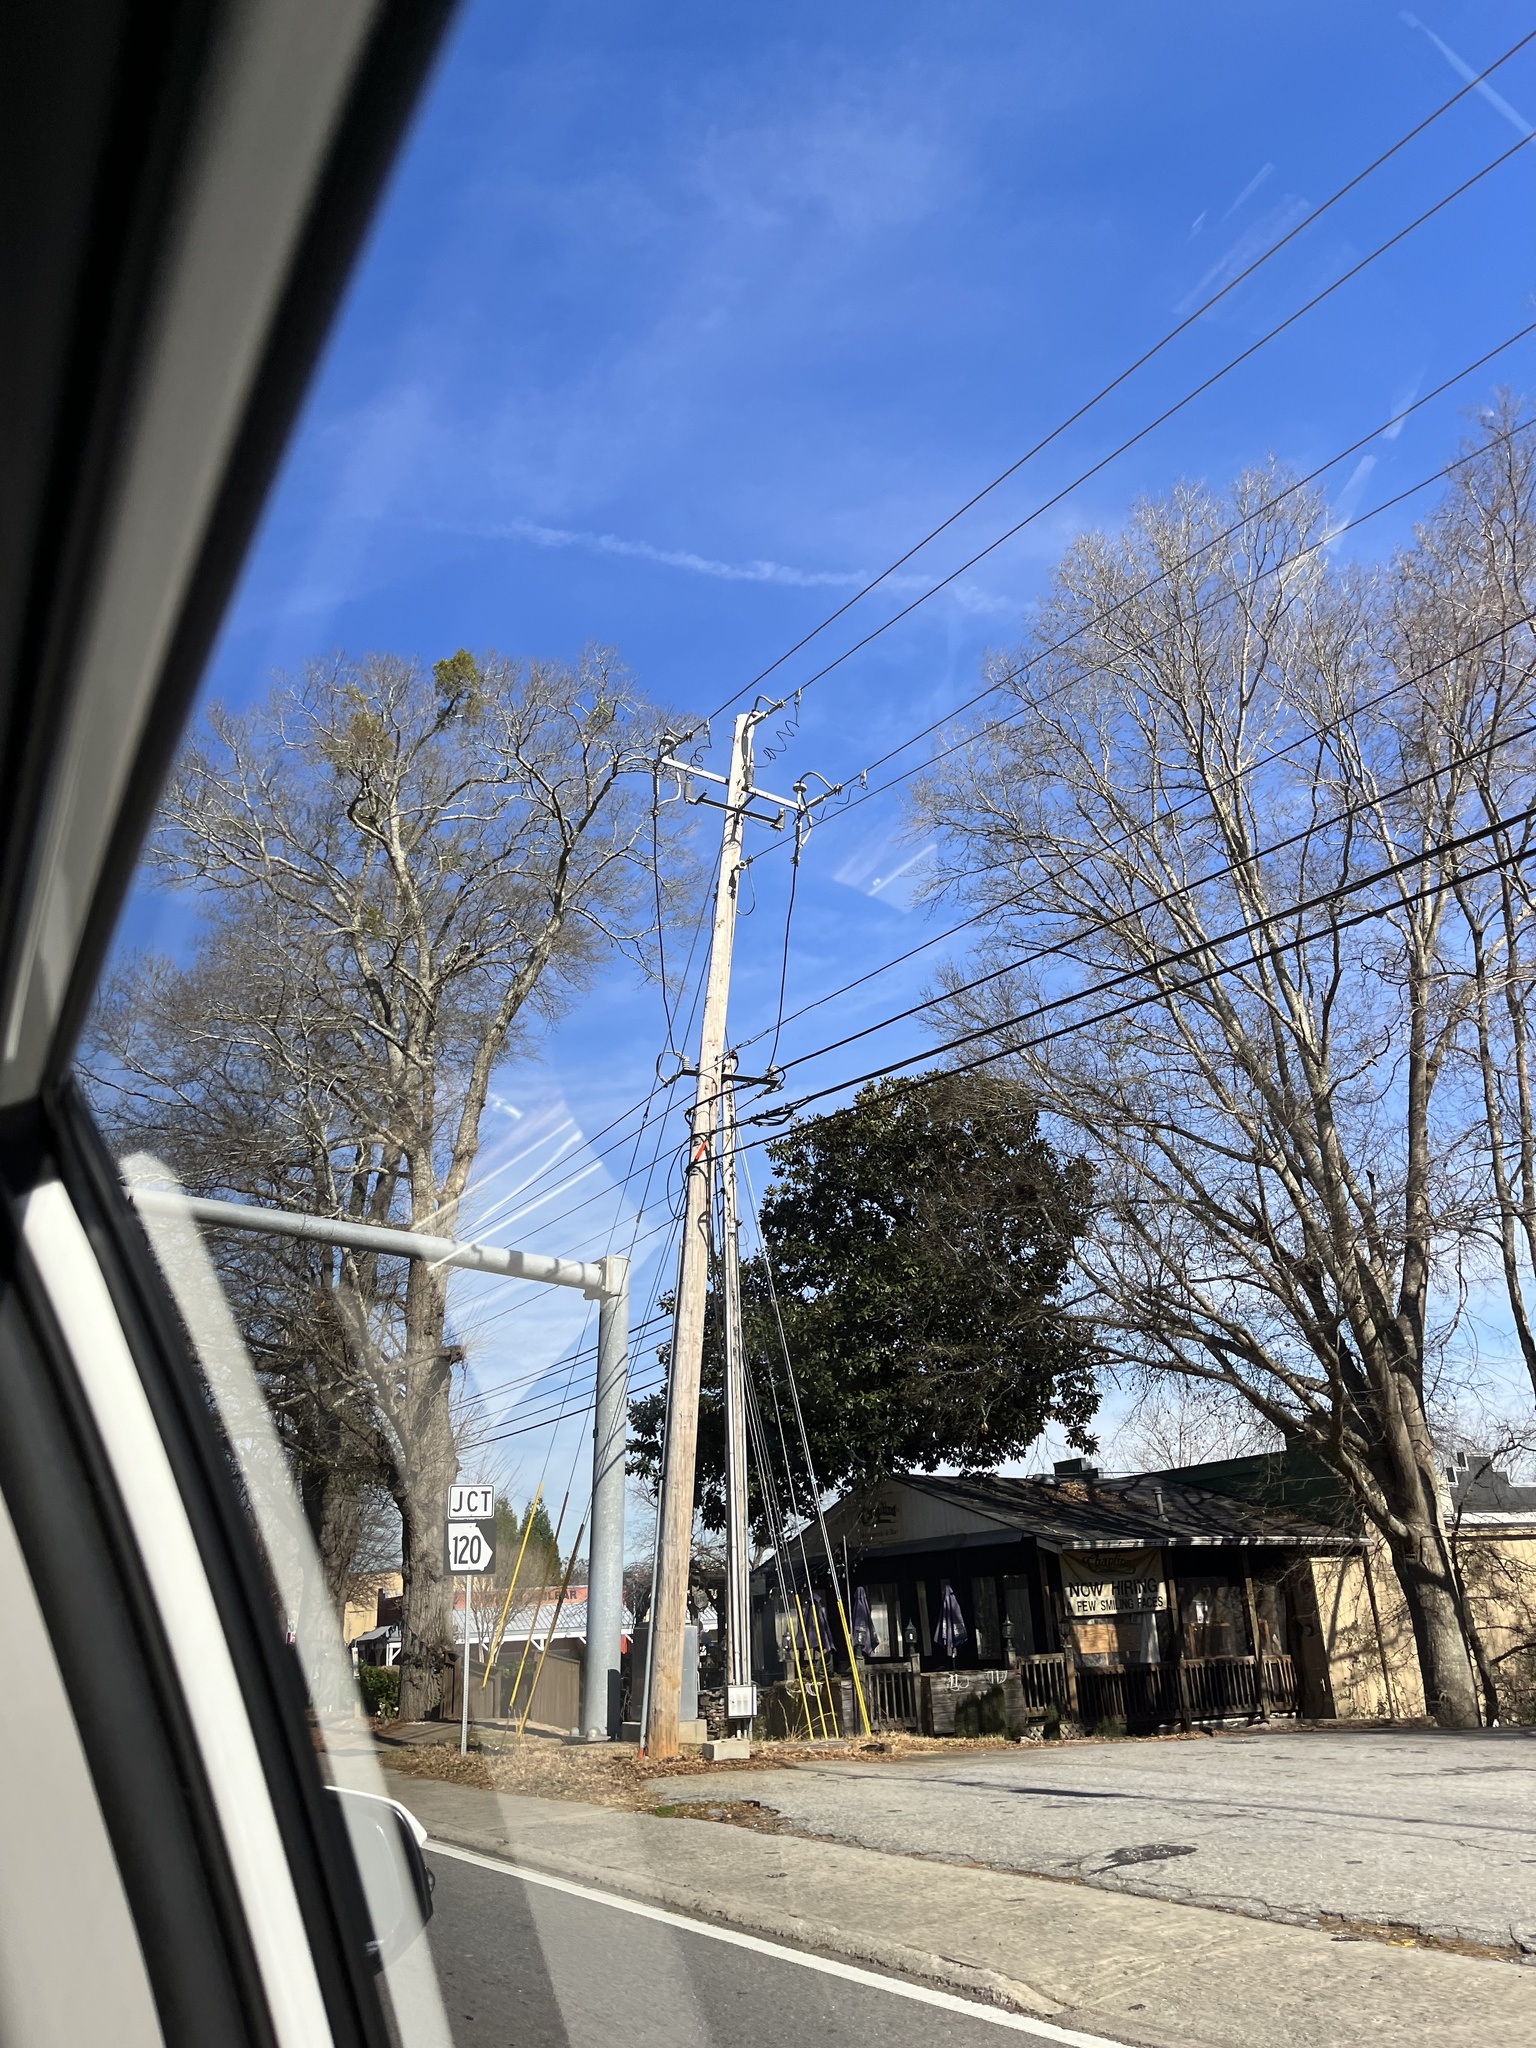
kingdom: Plantae
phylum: Tracheophyta
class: Magnoliopsida
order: Santalales
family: Viscaceae
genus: Phoradendron
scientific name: Phoradendron leucarpum
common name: Pacific mistletoe
